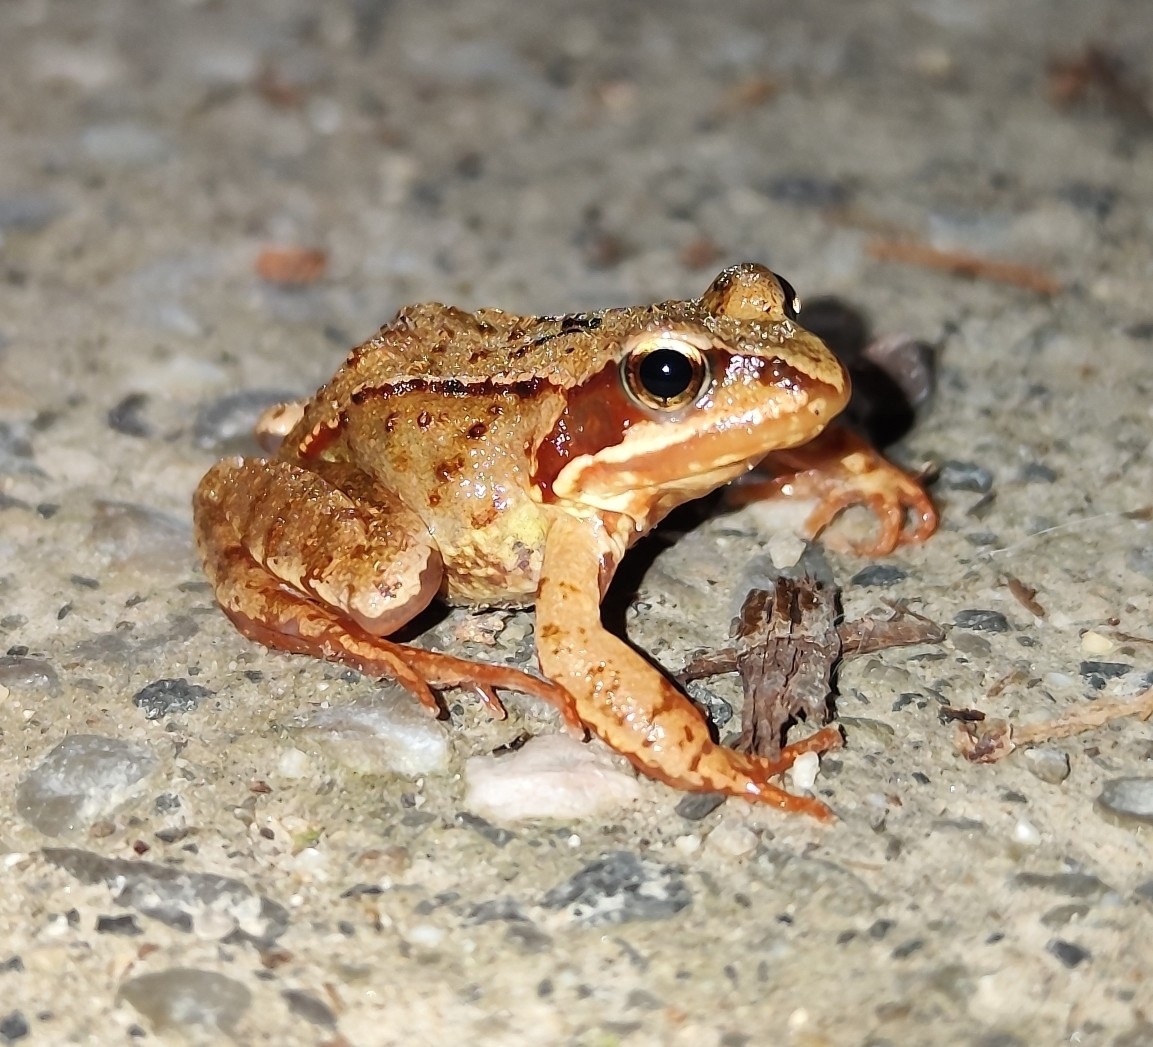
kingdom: Animalia
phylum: Chordata
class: Amphibia
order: Anura
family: Ranidae
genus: Rana
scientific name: Rana temporaria
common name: Common frog
